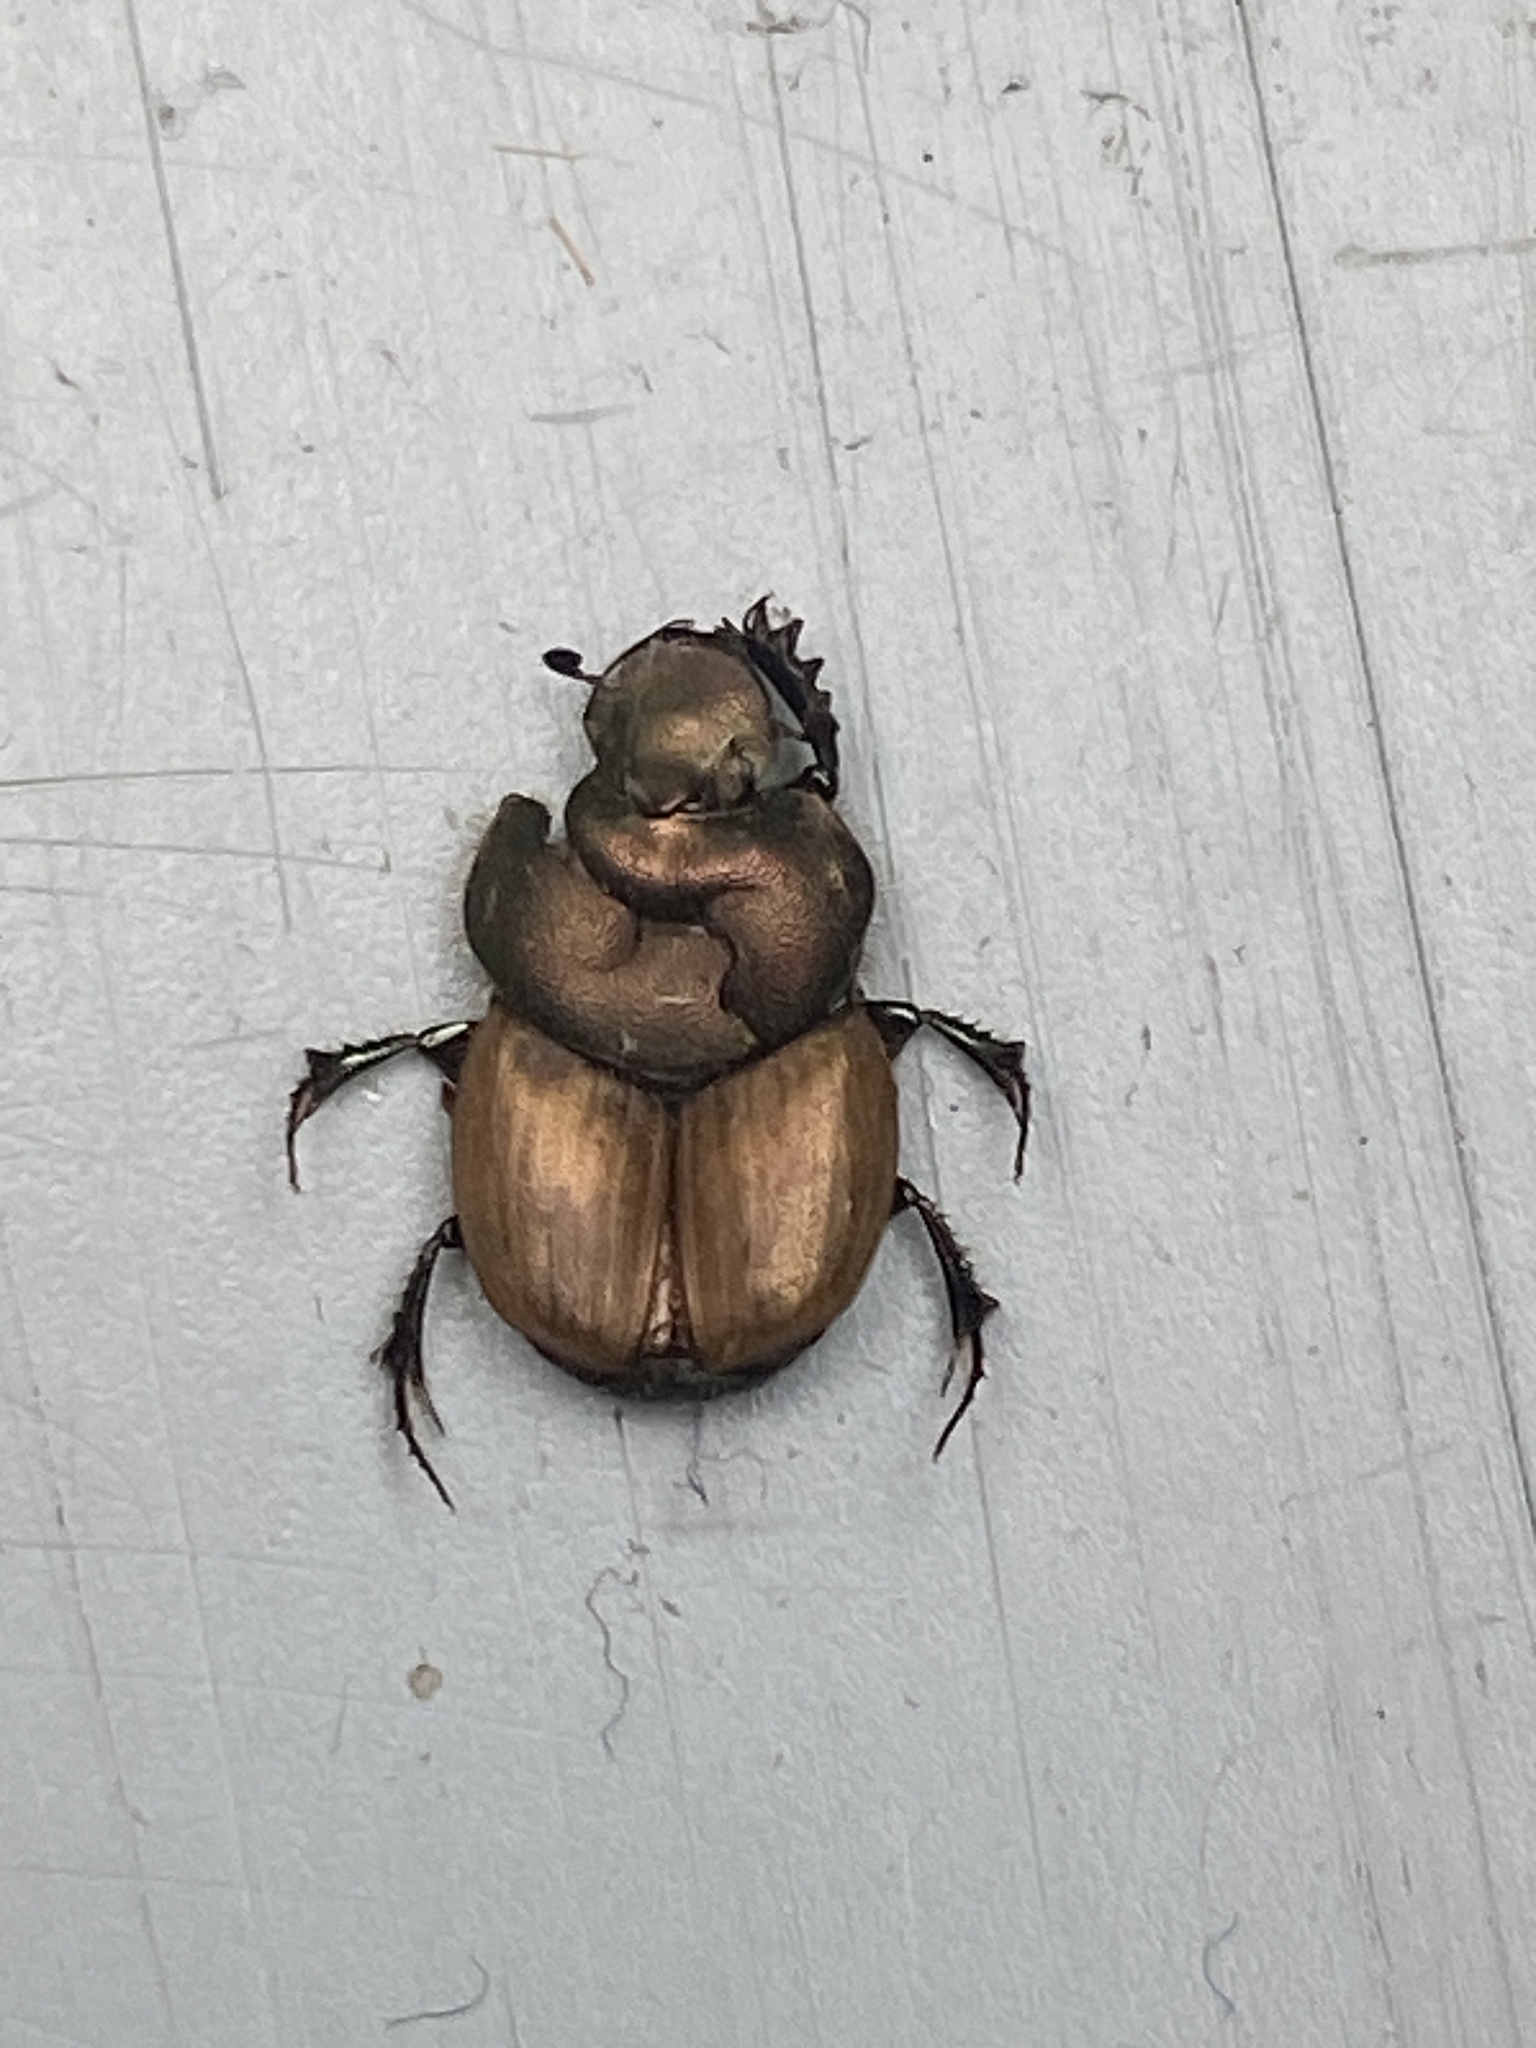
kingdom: Animalia
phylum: Arthropoda
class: Insecta
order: Coleoptera
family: Scarabaeidae
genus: Onthophagus
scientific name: Onthophagus coenobita
